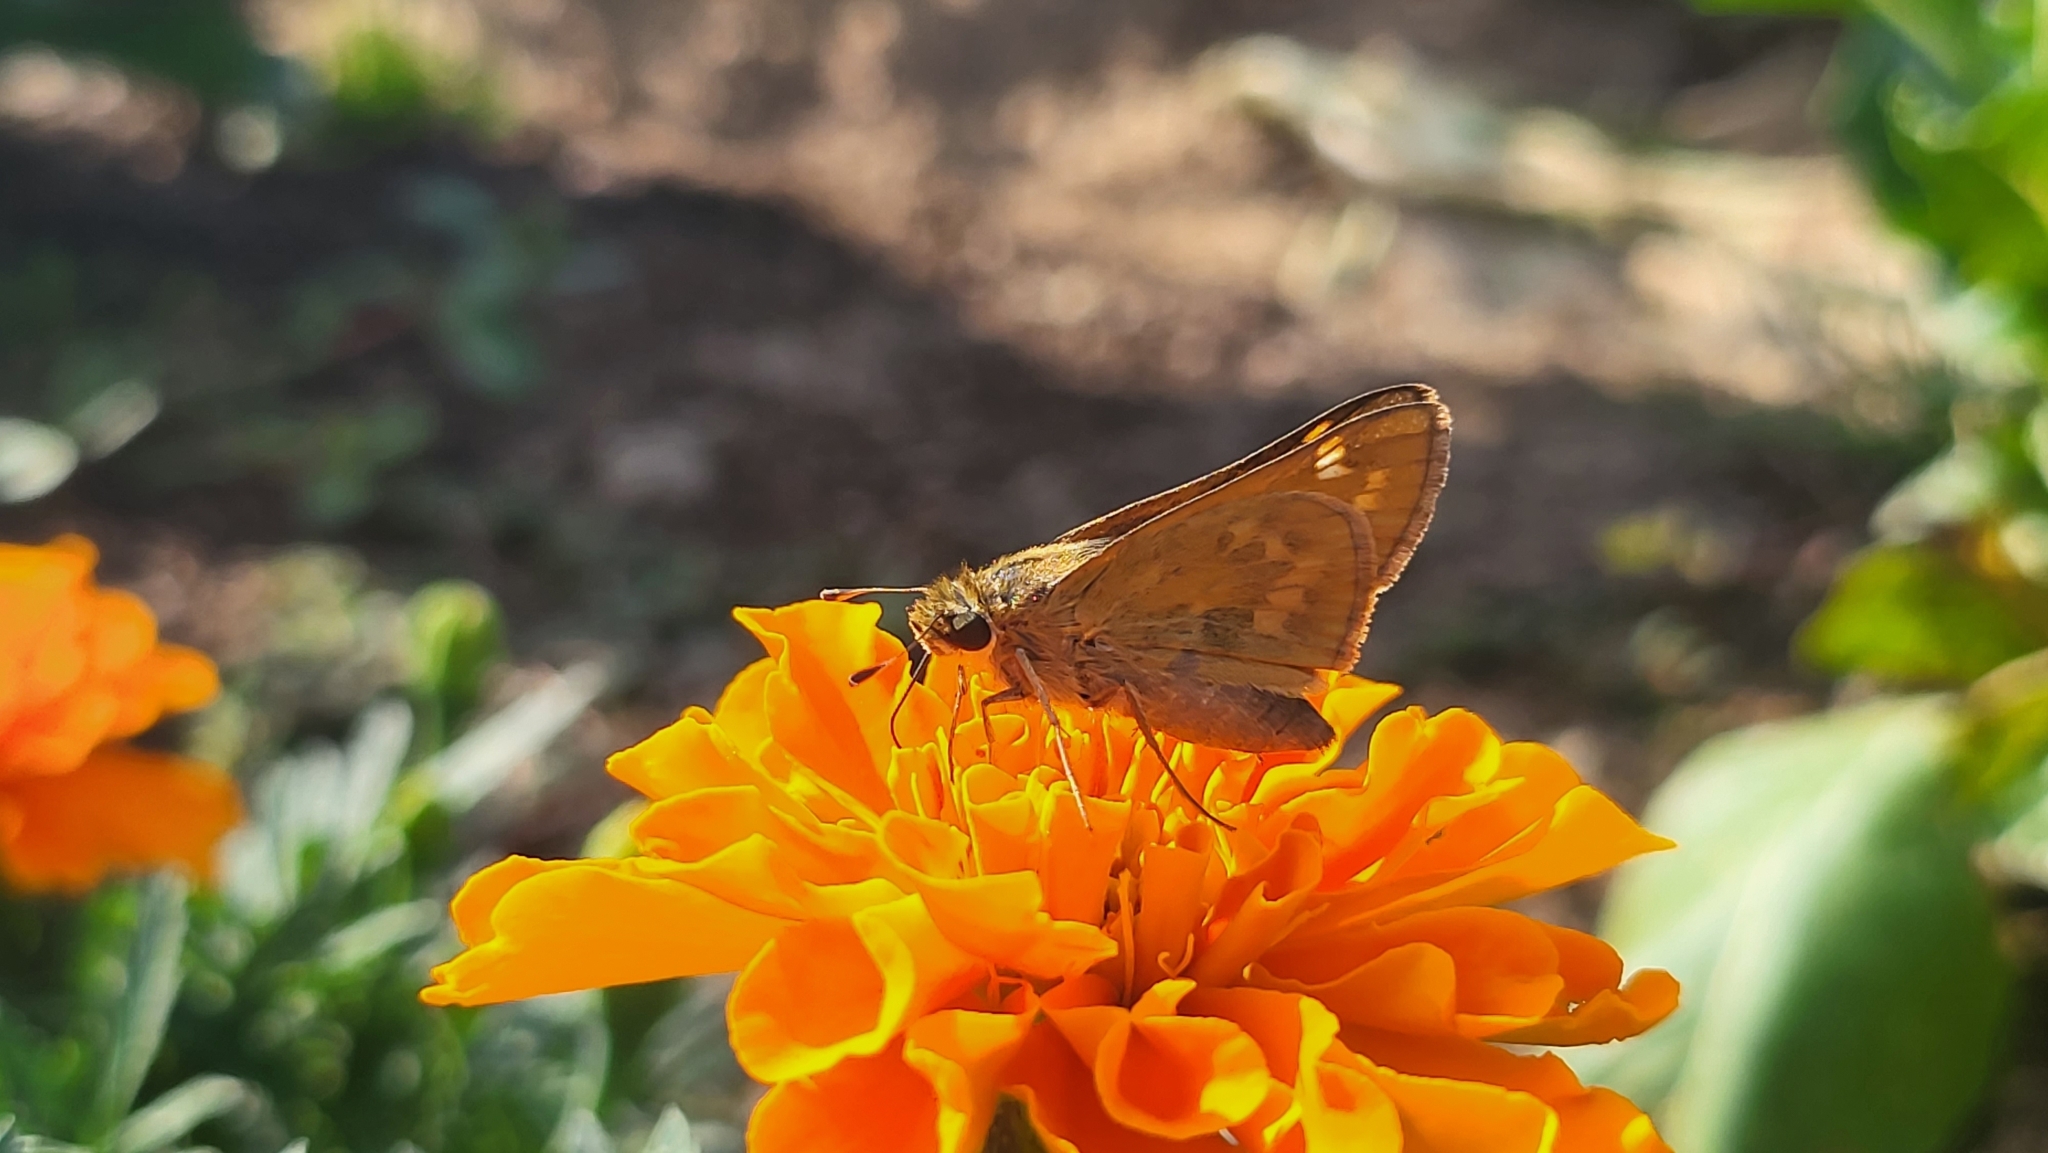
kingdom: Animalia
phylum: Arthropoda
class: Insecta
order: Lepidoptera
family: Hesperiidae
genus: Atalopedes
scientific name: Atalopedes
